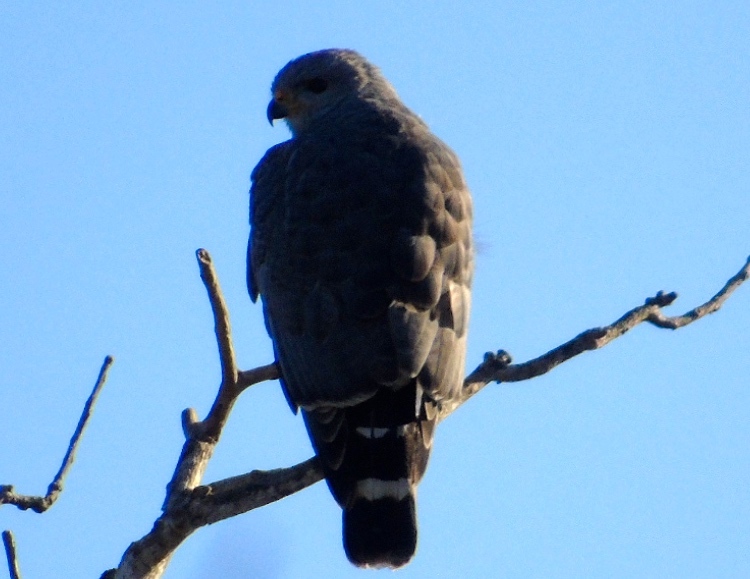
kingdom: Animalia
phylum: Chordata
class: Aves
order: Accipitriformes
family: Accipitridae
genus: Buteo
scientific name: Buteo nitidus
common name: Grey-lined hawk
